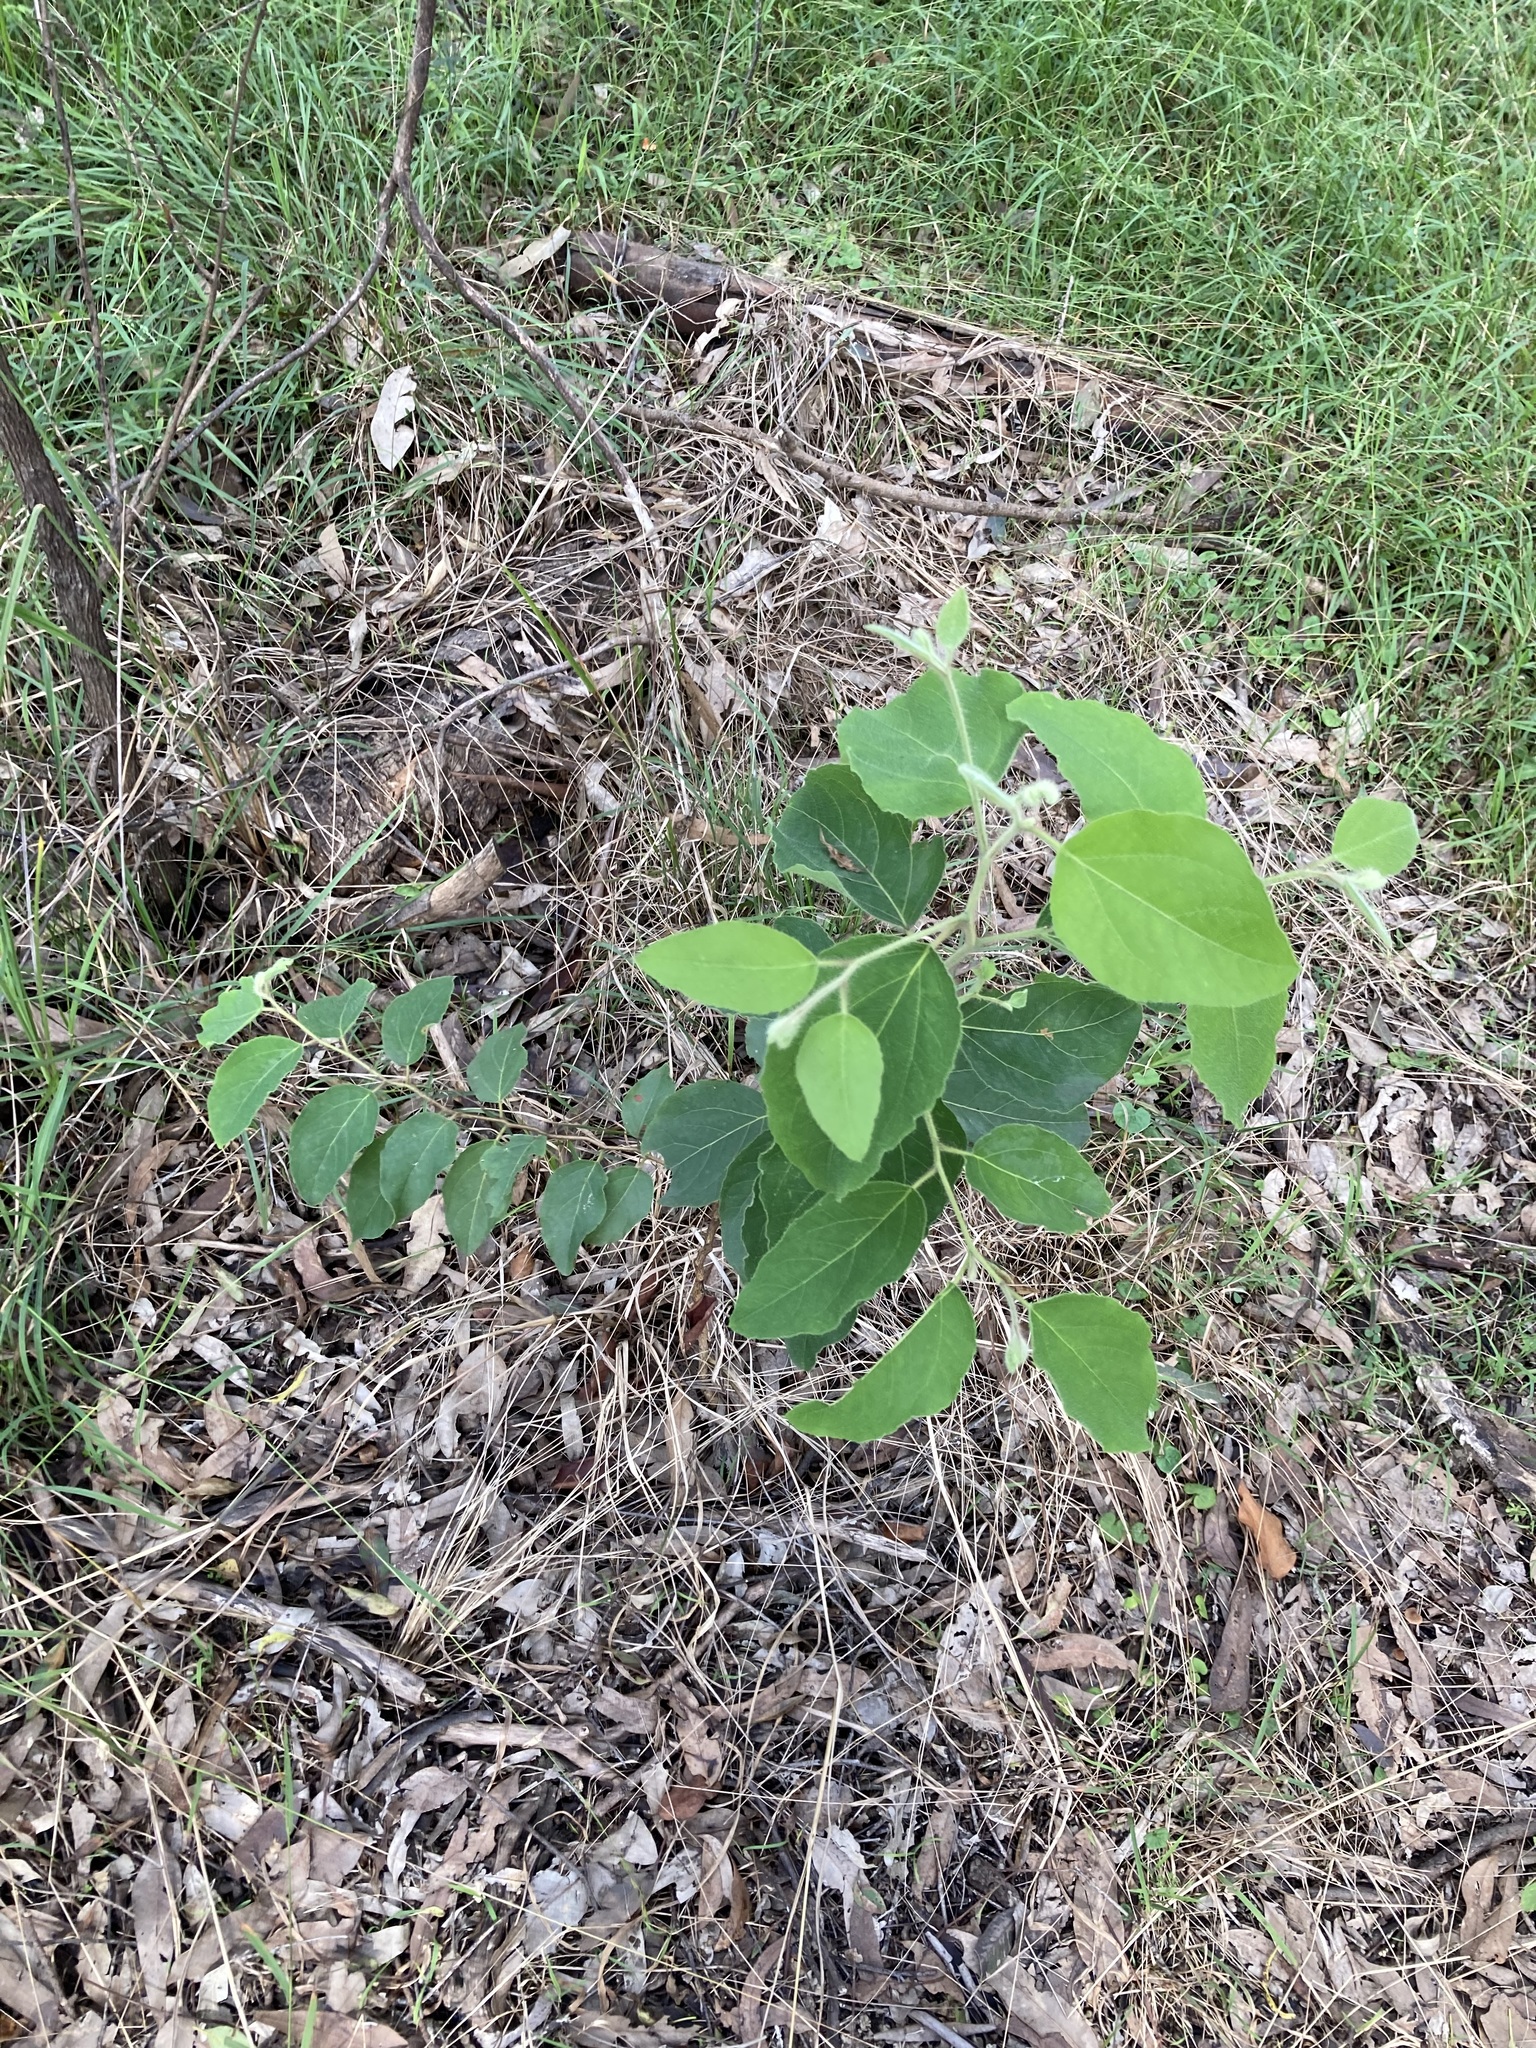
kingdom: Plantae
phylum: Tracheophyta
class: Magnoliopsida
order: Myrtales
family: Myrtaceae
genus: Corymbia
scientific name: Corymbia torelliana
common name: Cadaghi
